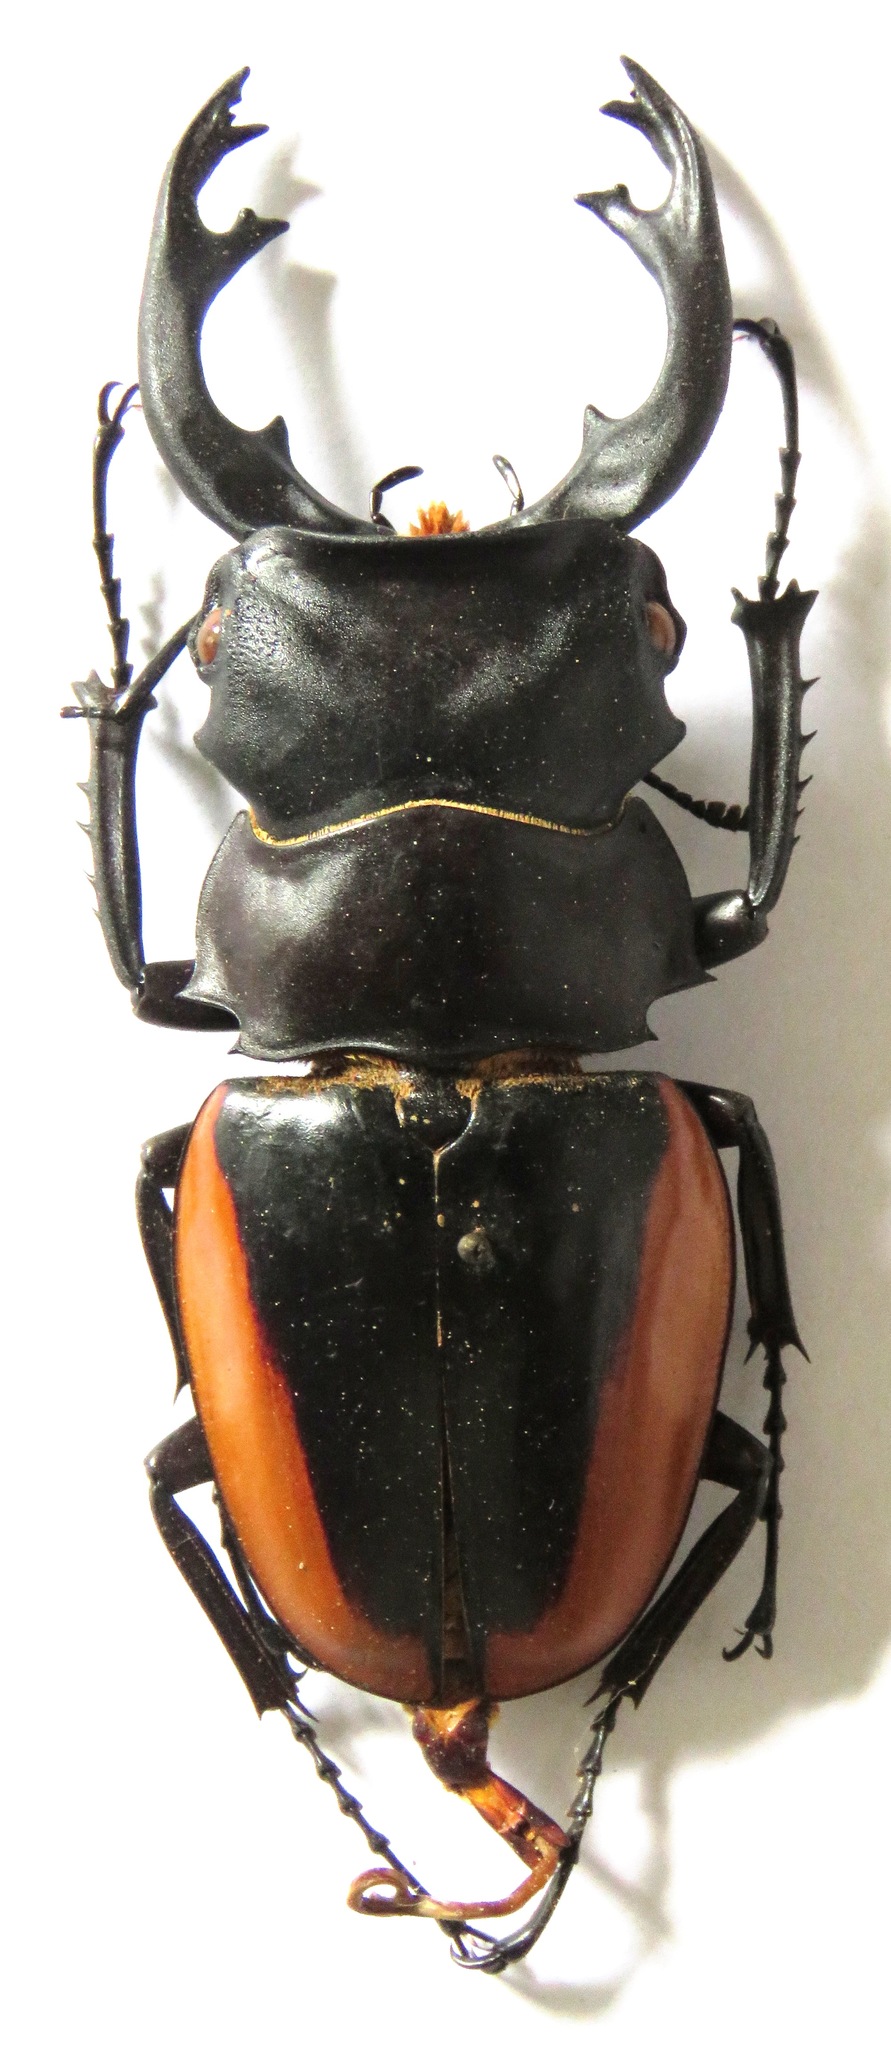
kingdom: Animalia
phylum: Arthropoda
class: Insecta
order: Coleoptera
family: Lucanidae
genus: Odontolabis
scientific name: Odontolabis cuvera
